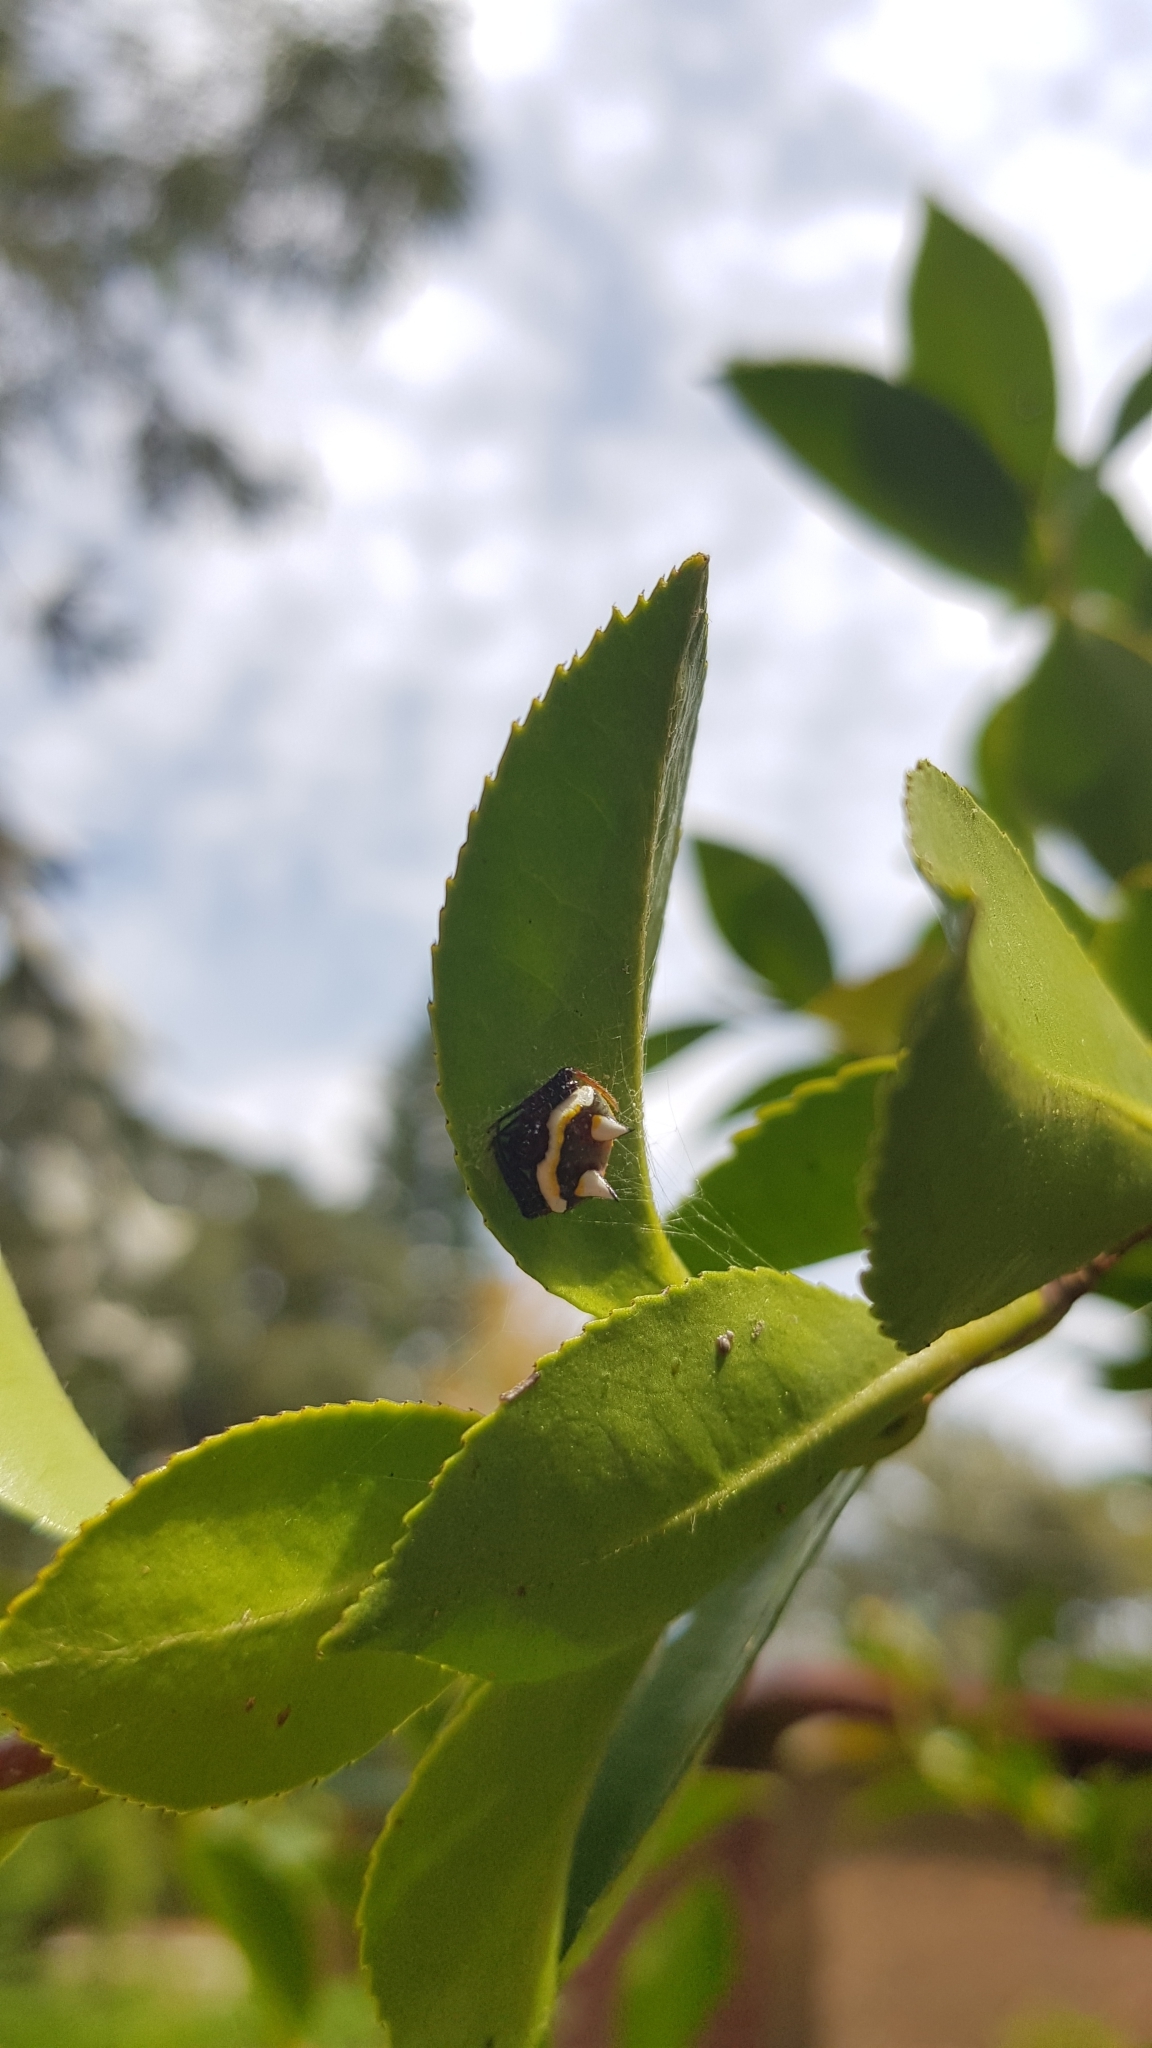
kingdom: Animalia
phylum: Arthropoda
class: Arachnida
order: Araneae
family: Araneidae
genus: Poecilopachys
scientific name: Poecilopachys australasia
